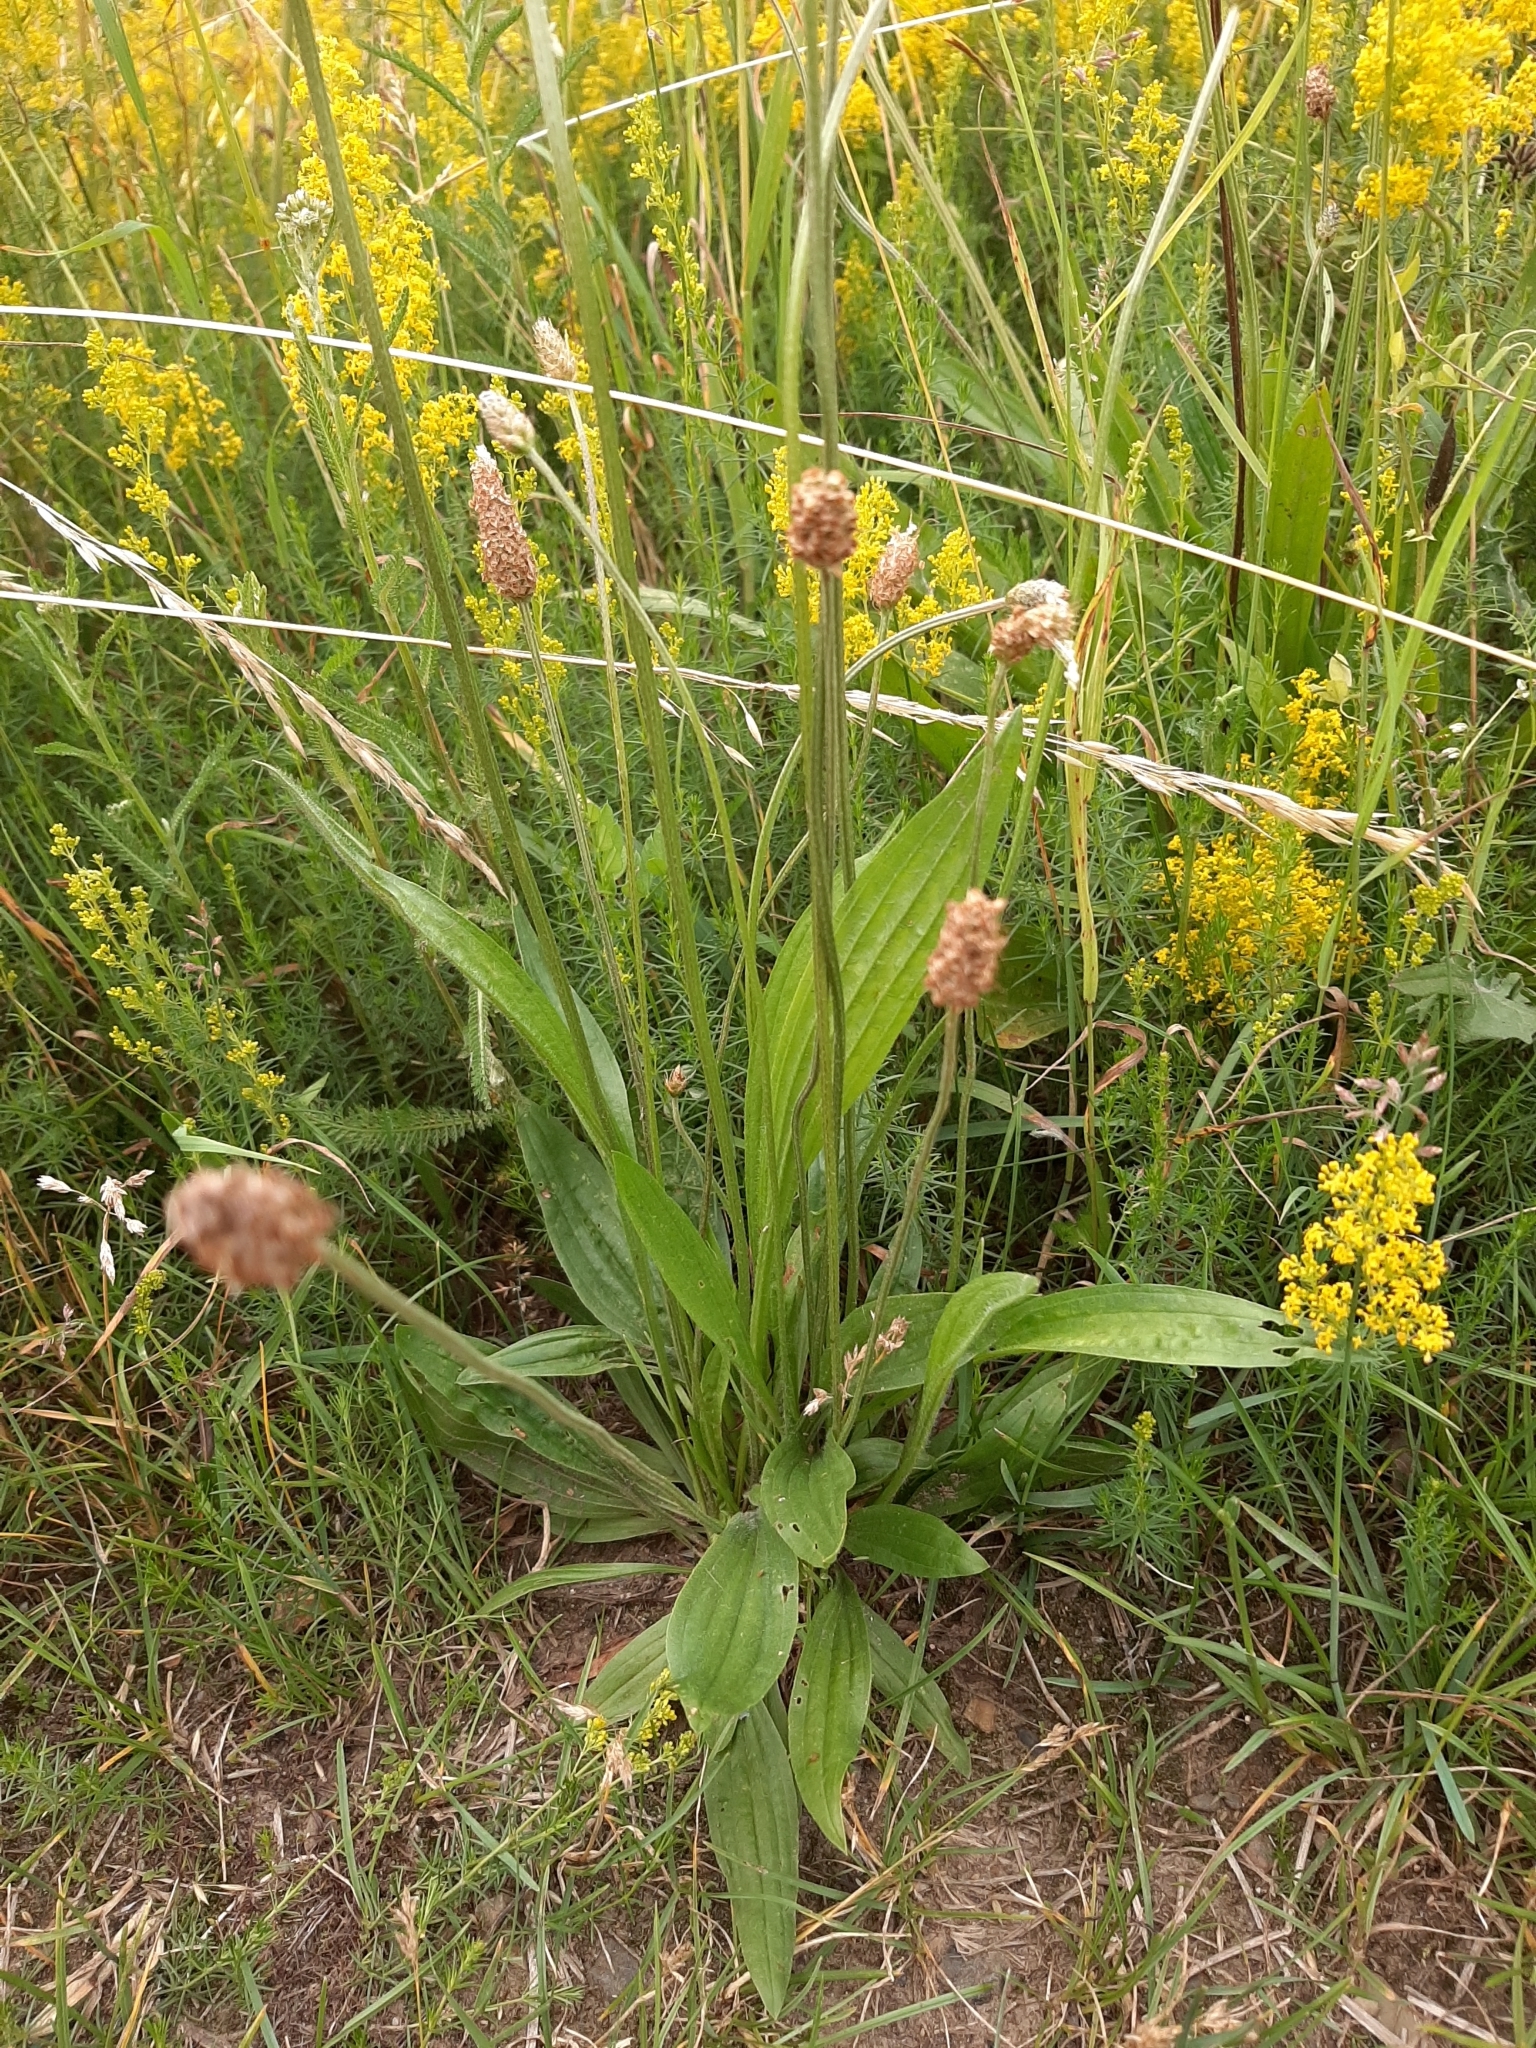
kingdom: Plantae
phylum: Tracheophyta
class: Magnoliopsida
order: Lamiales
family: Plantaginaceae
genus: Plantago
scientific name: Plantago lanceolata
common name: Ribwort plantain
